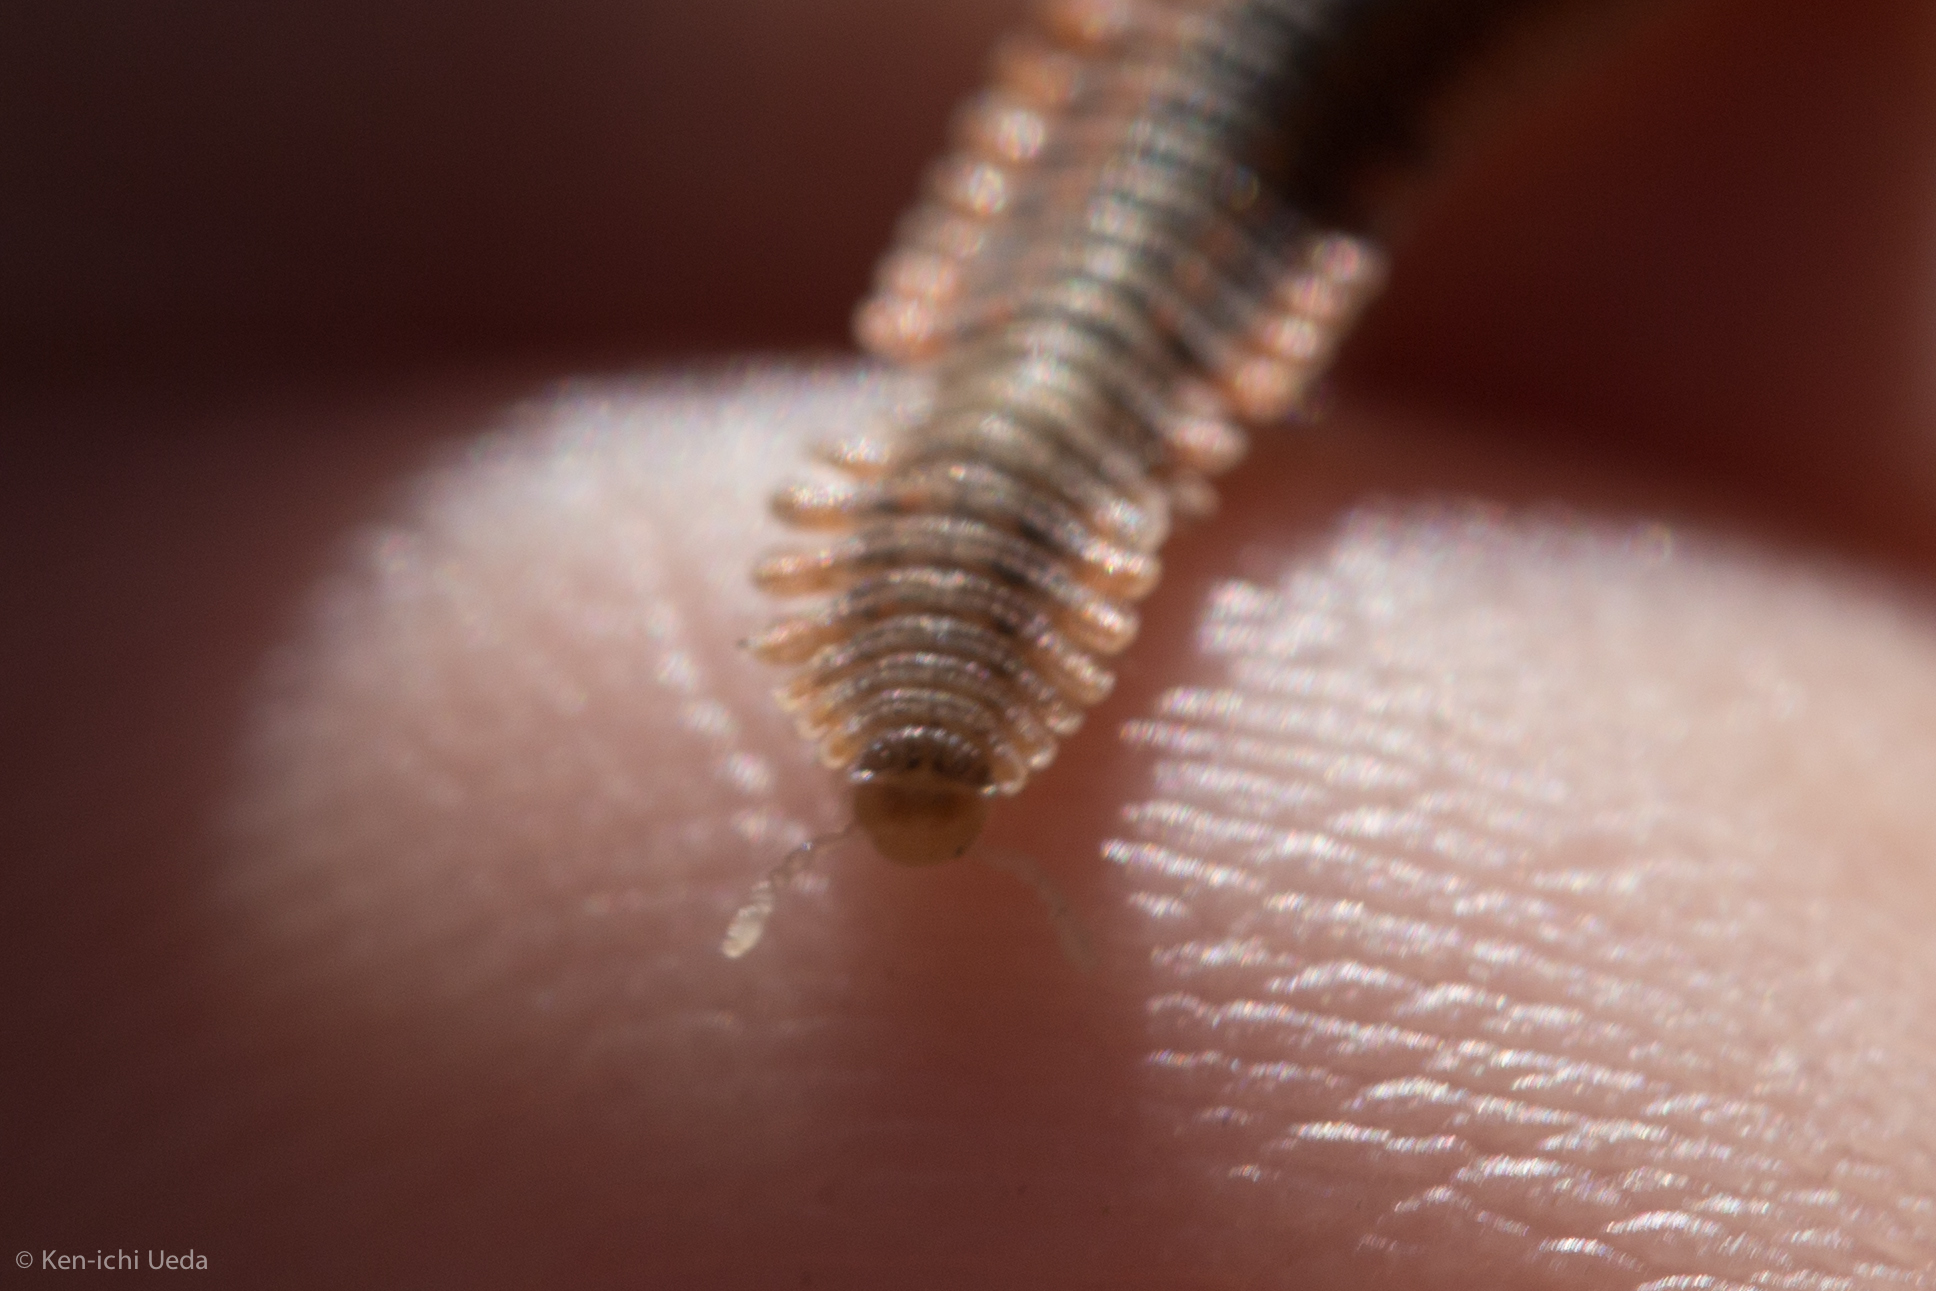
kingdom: Animalia
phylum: Arthropoda
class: Diplopoda
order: Platydesmida
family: Andrognathidae
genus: Brachycybe
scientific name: Brachycybe producta
